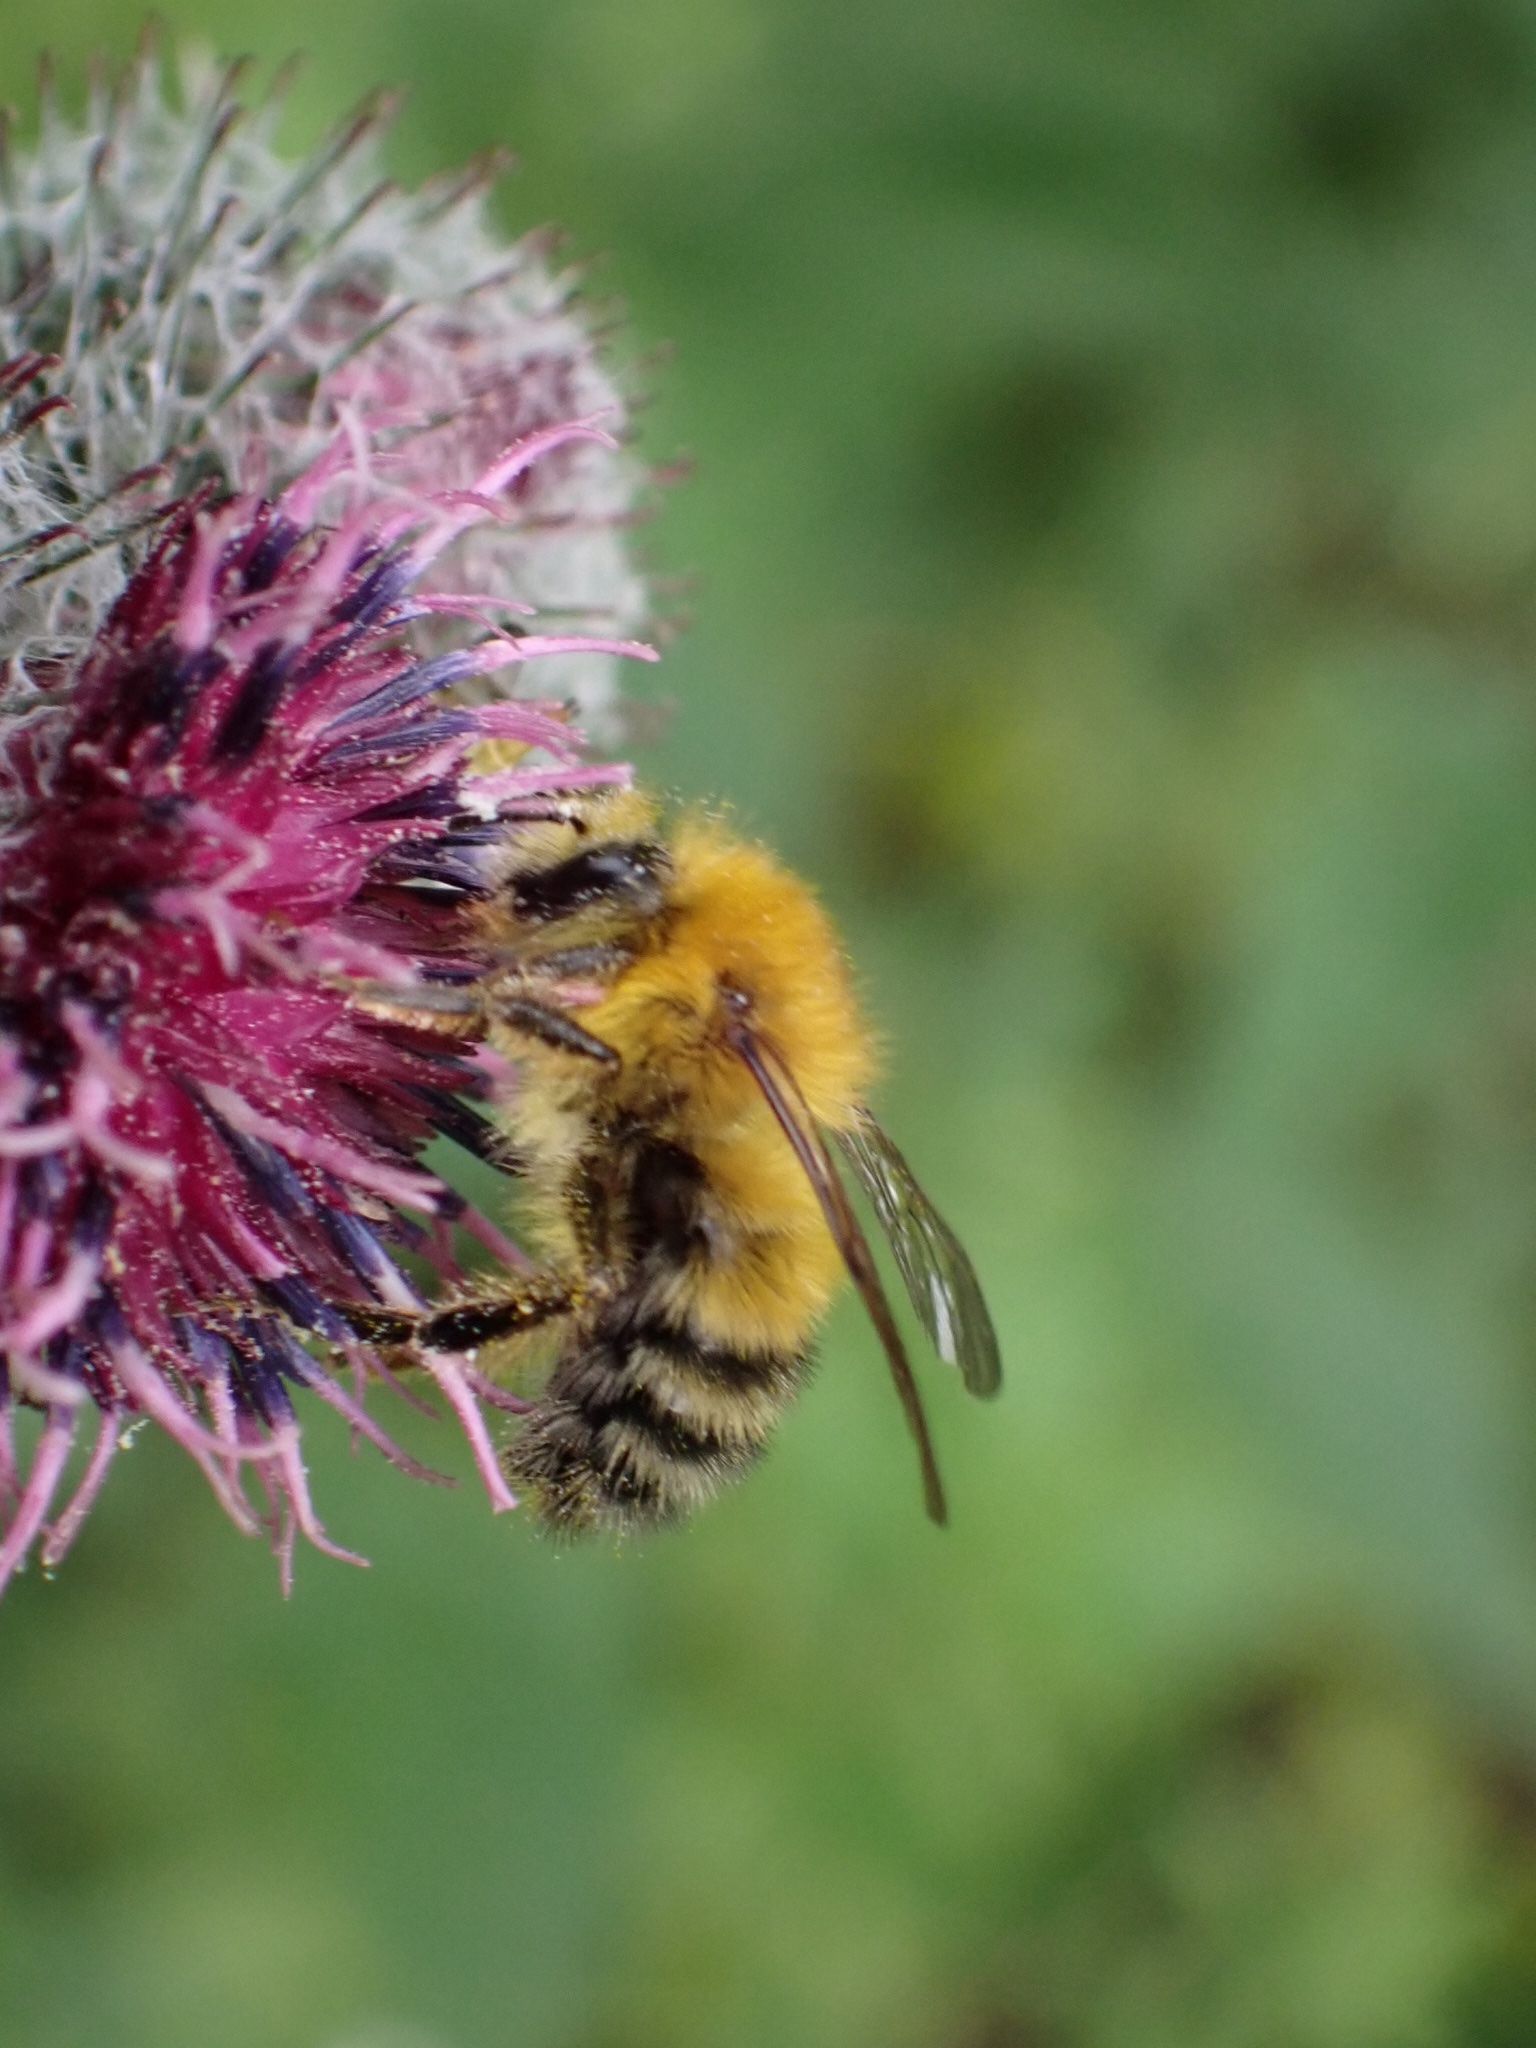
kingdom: Animalia
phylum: Arthropoda
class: Insecta
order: Hymenoptera
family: Apidae
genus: Bombus
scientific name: Bombus modestus
